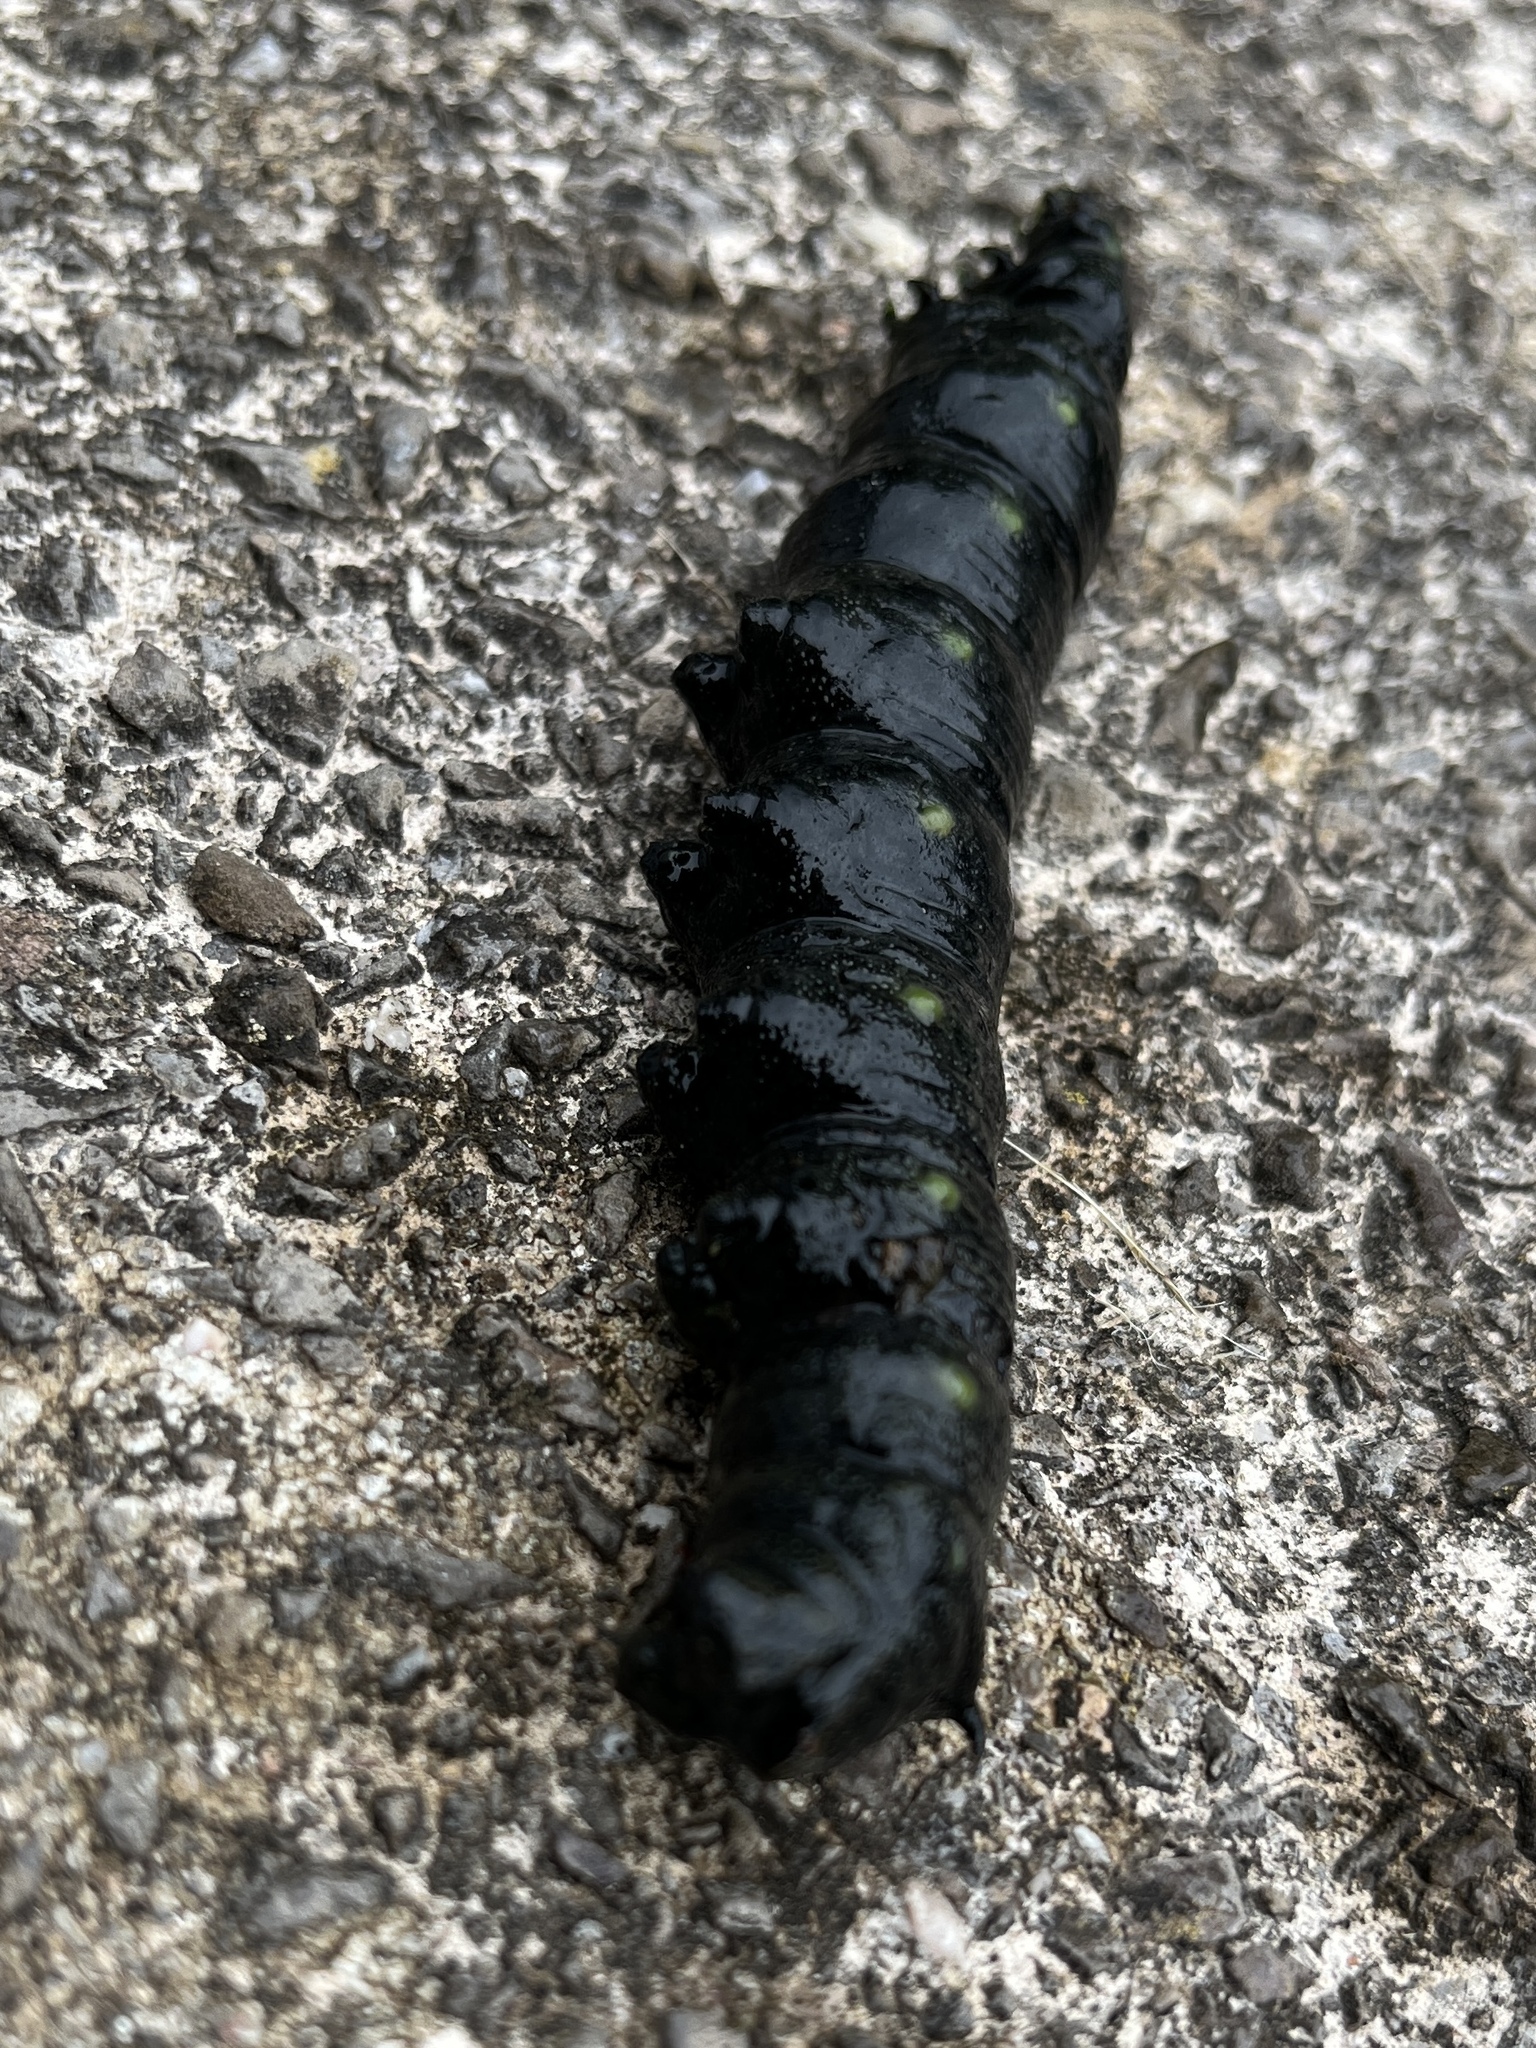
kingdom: Animalia
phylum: Arthropoda
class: Insecta
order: Lepidoptera
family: Sphingidae
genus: Deilephila
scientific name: Deilephila elpenor
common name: Elephant hawk-moth
